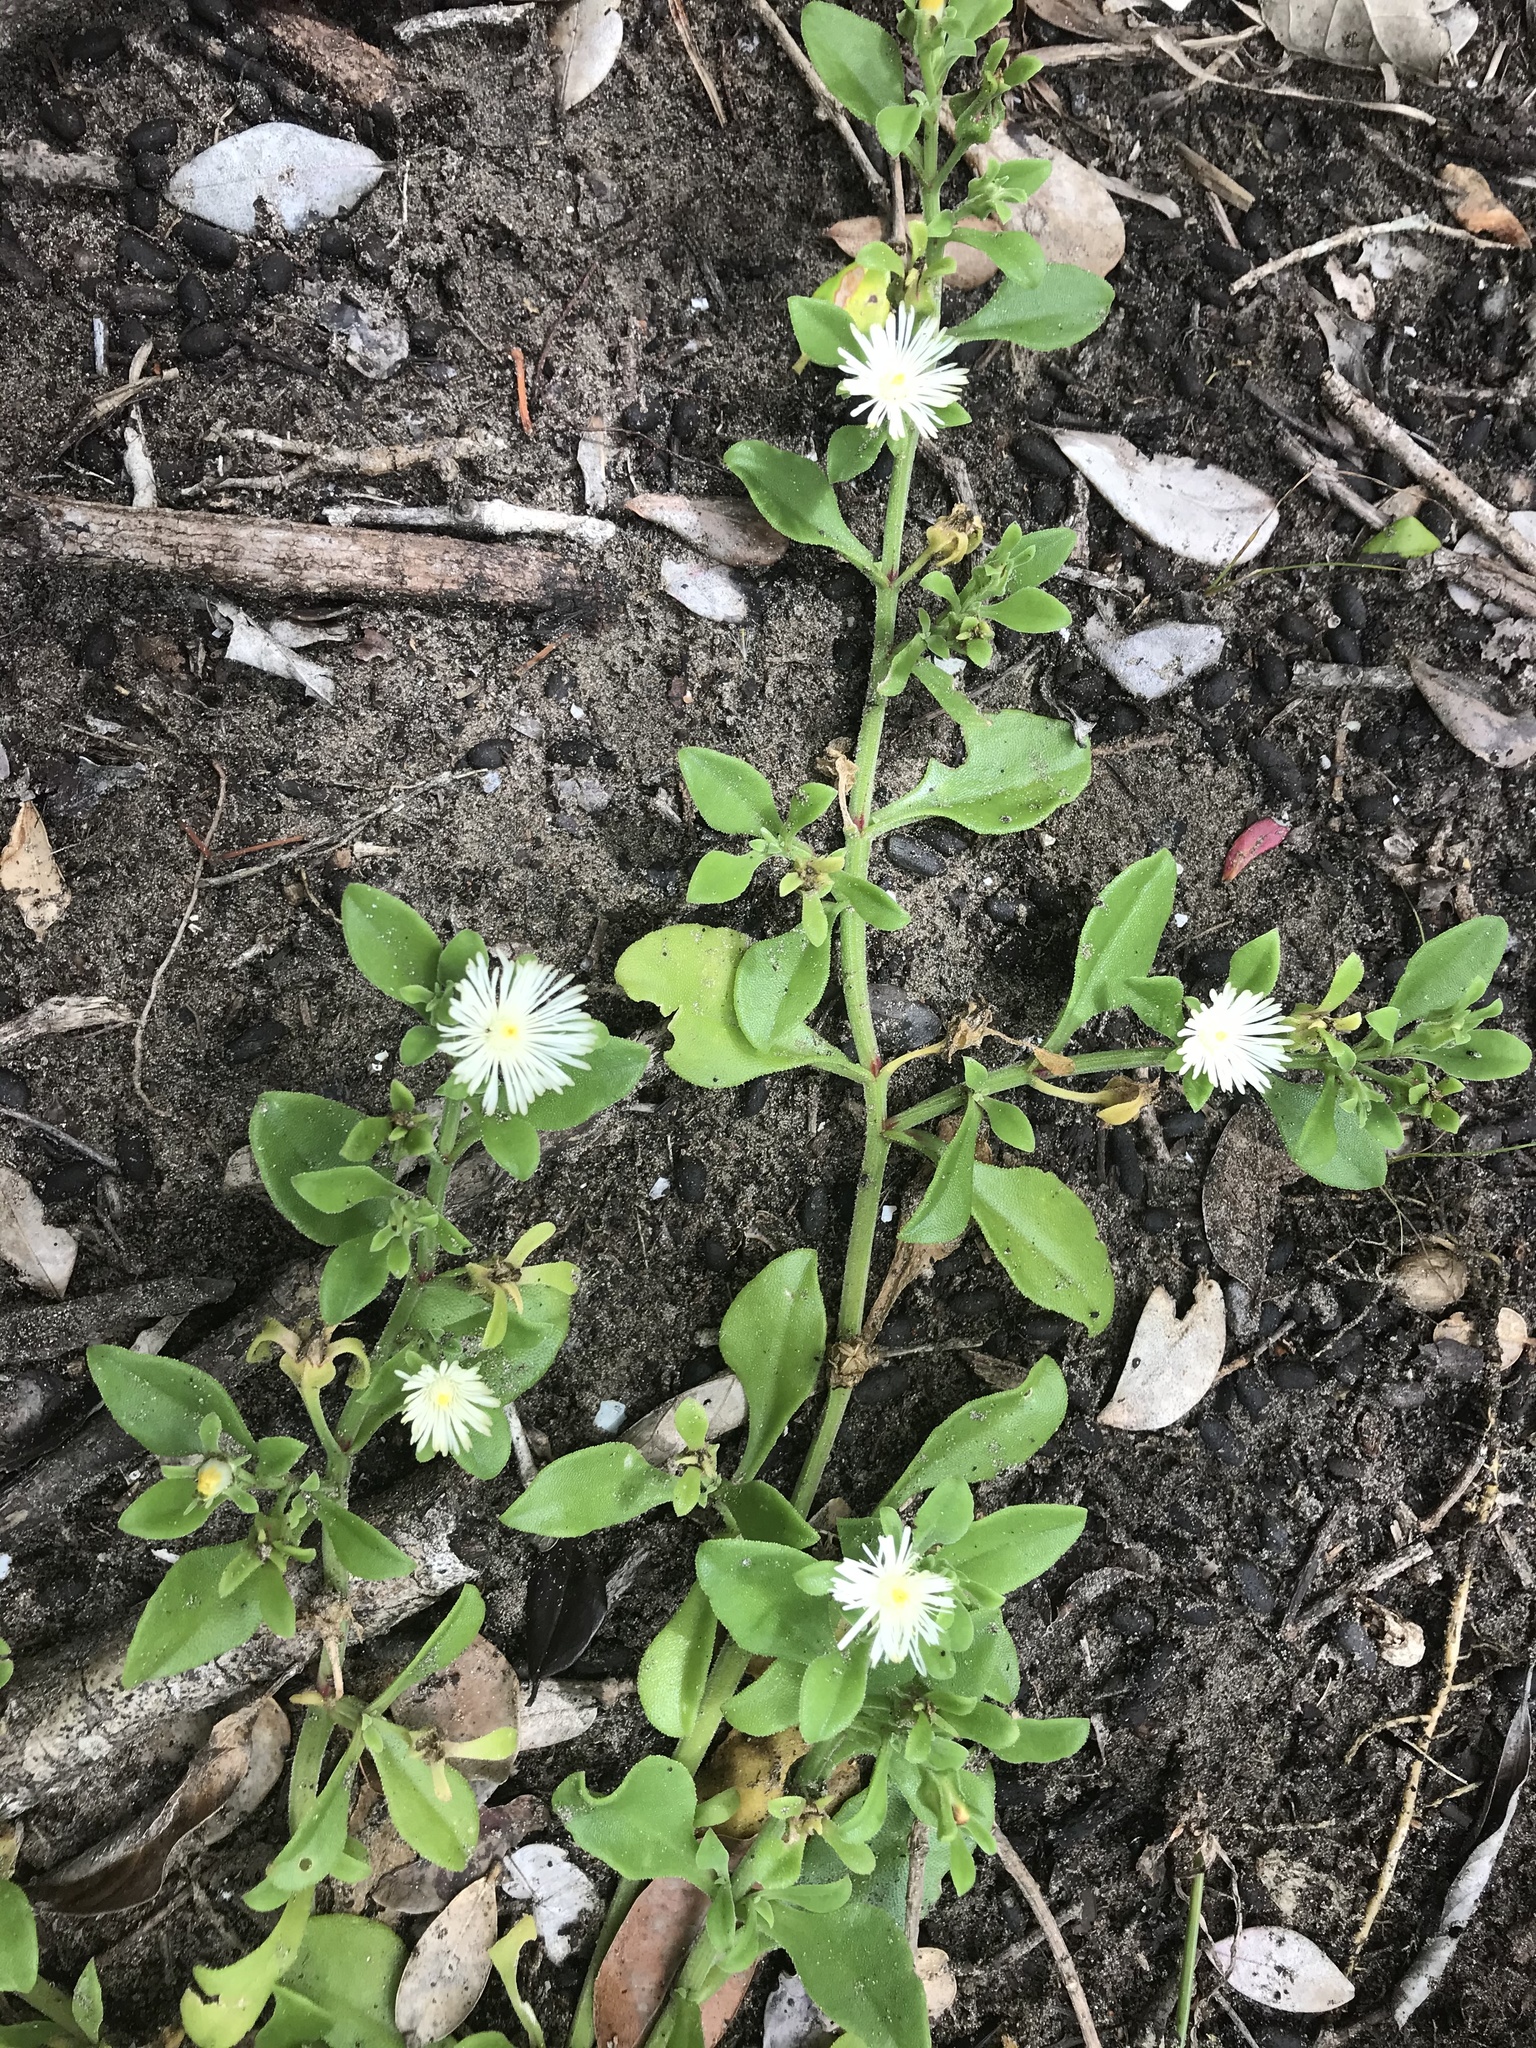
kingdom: Plantae
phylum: Tracheophyta
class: Magnoliopsida
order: Caryophyllales
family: Aizoaceae
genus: Mesembryanthemum
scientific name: Mesembryanthemum aitonis
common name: Angled iceplant
